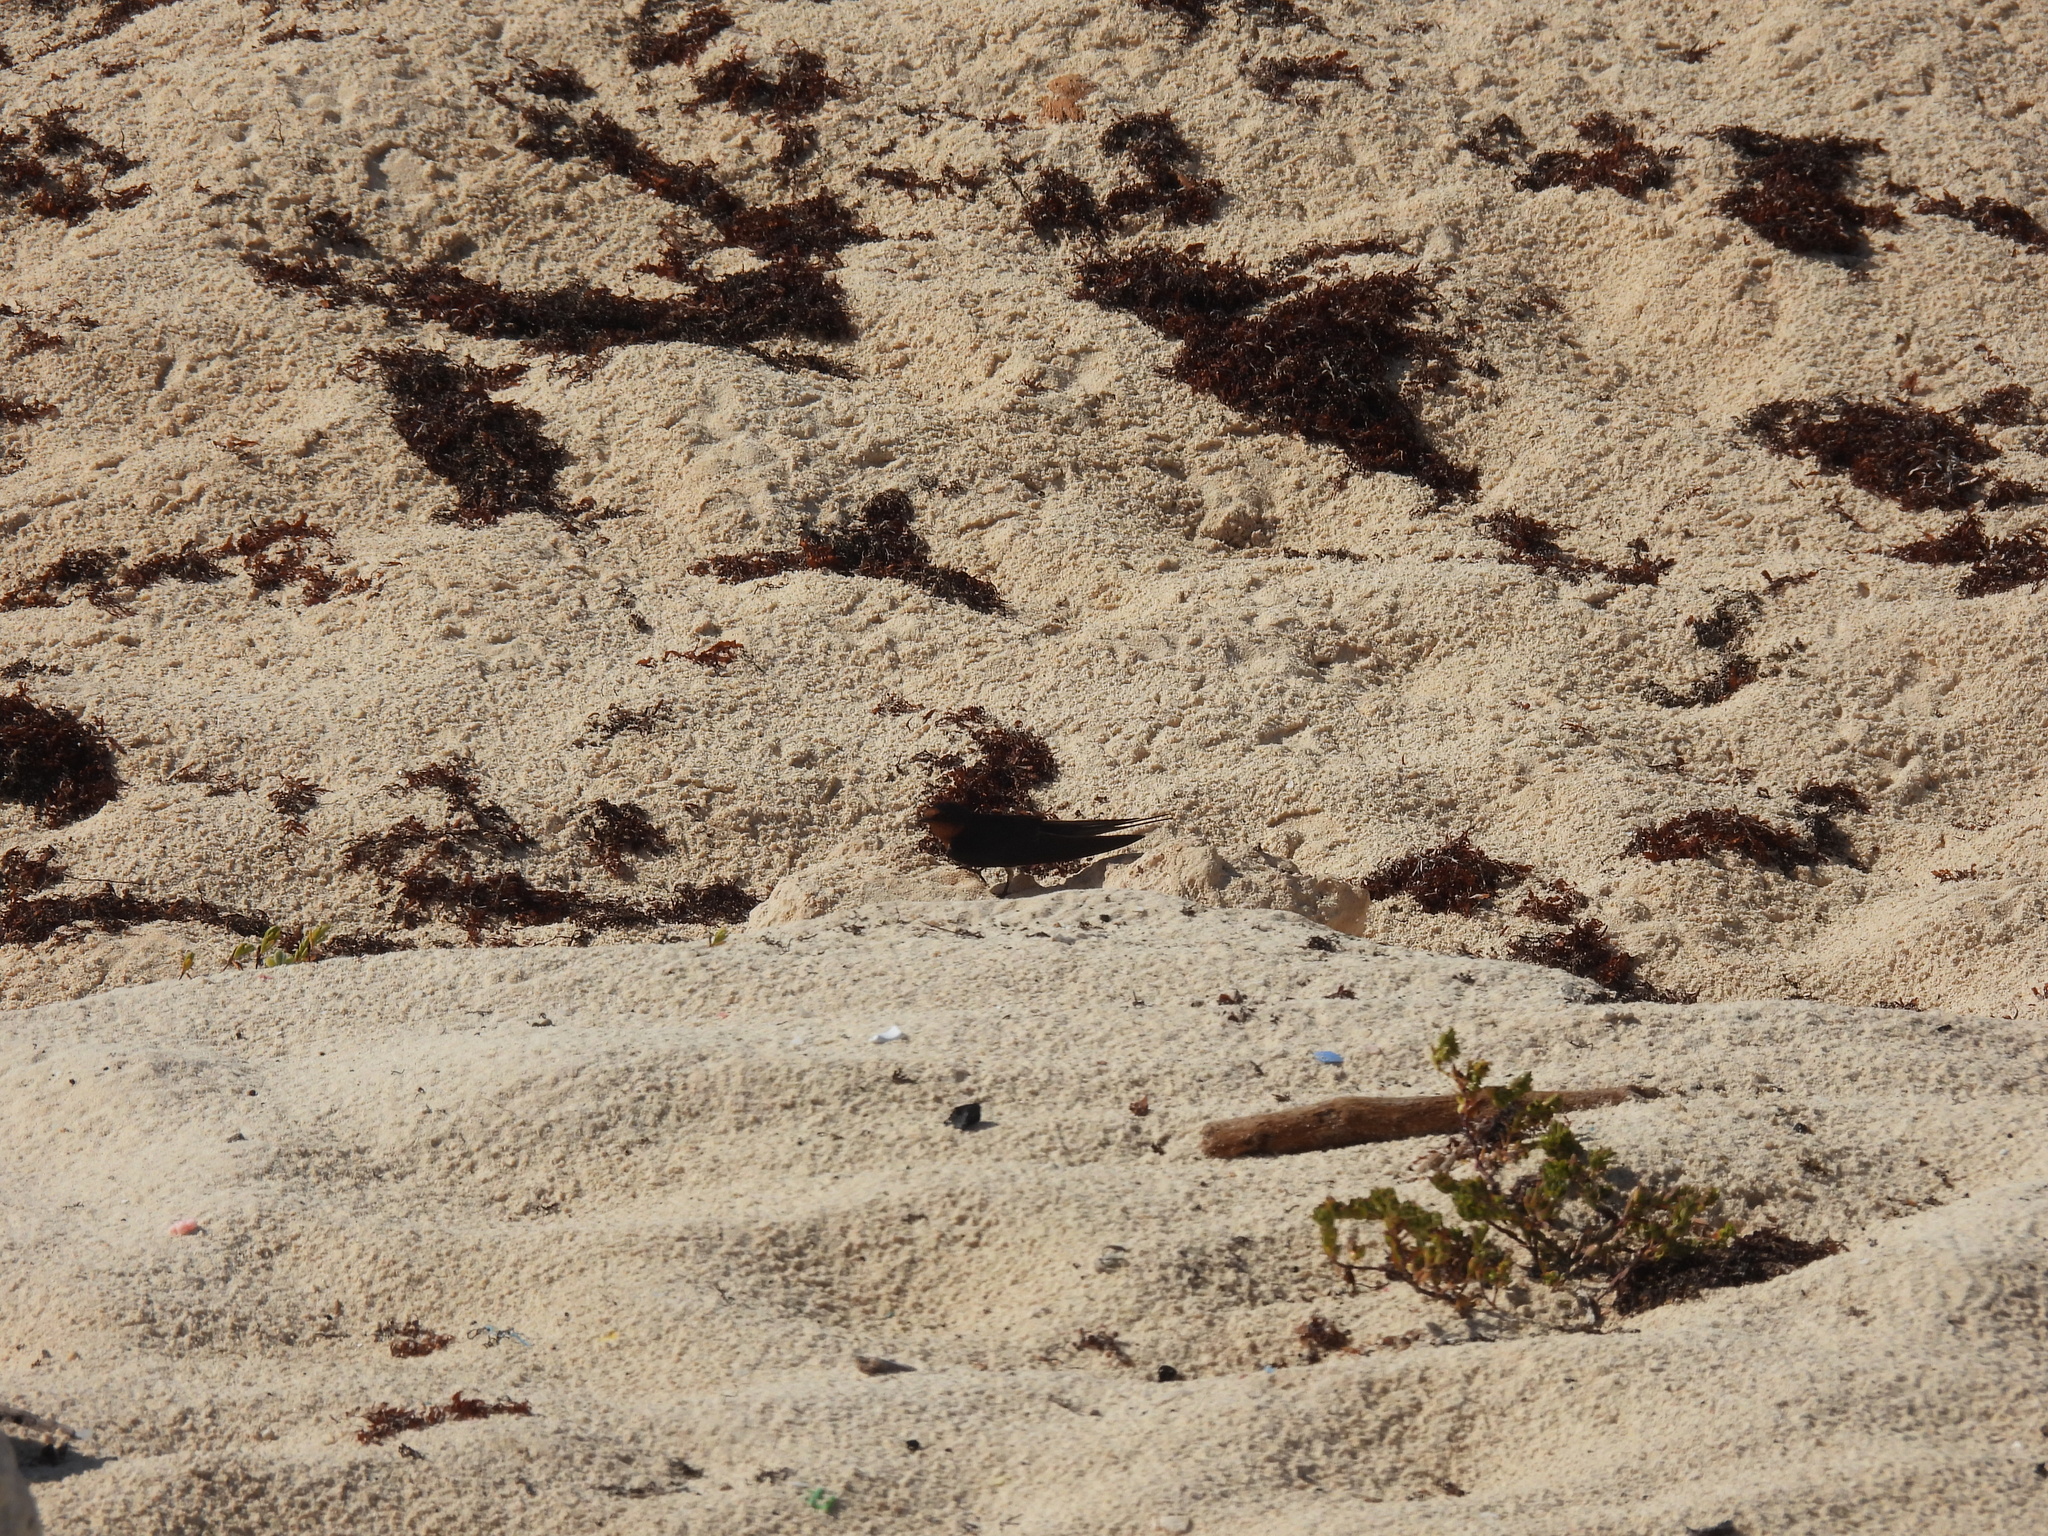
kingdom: Animalia
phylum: Chordata
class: Aves
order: Passeriformes
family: Hirundinidae
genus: Hirundo
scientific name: Hirundo rustica
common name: Barn swallow
